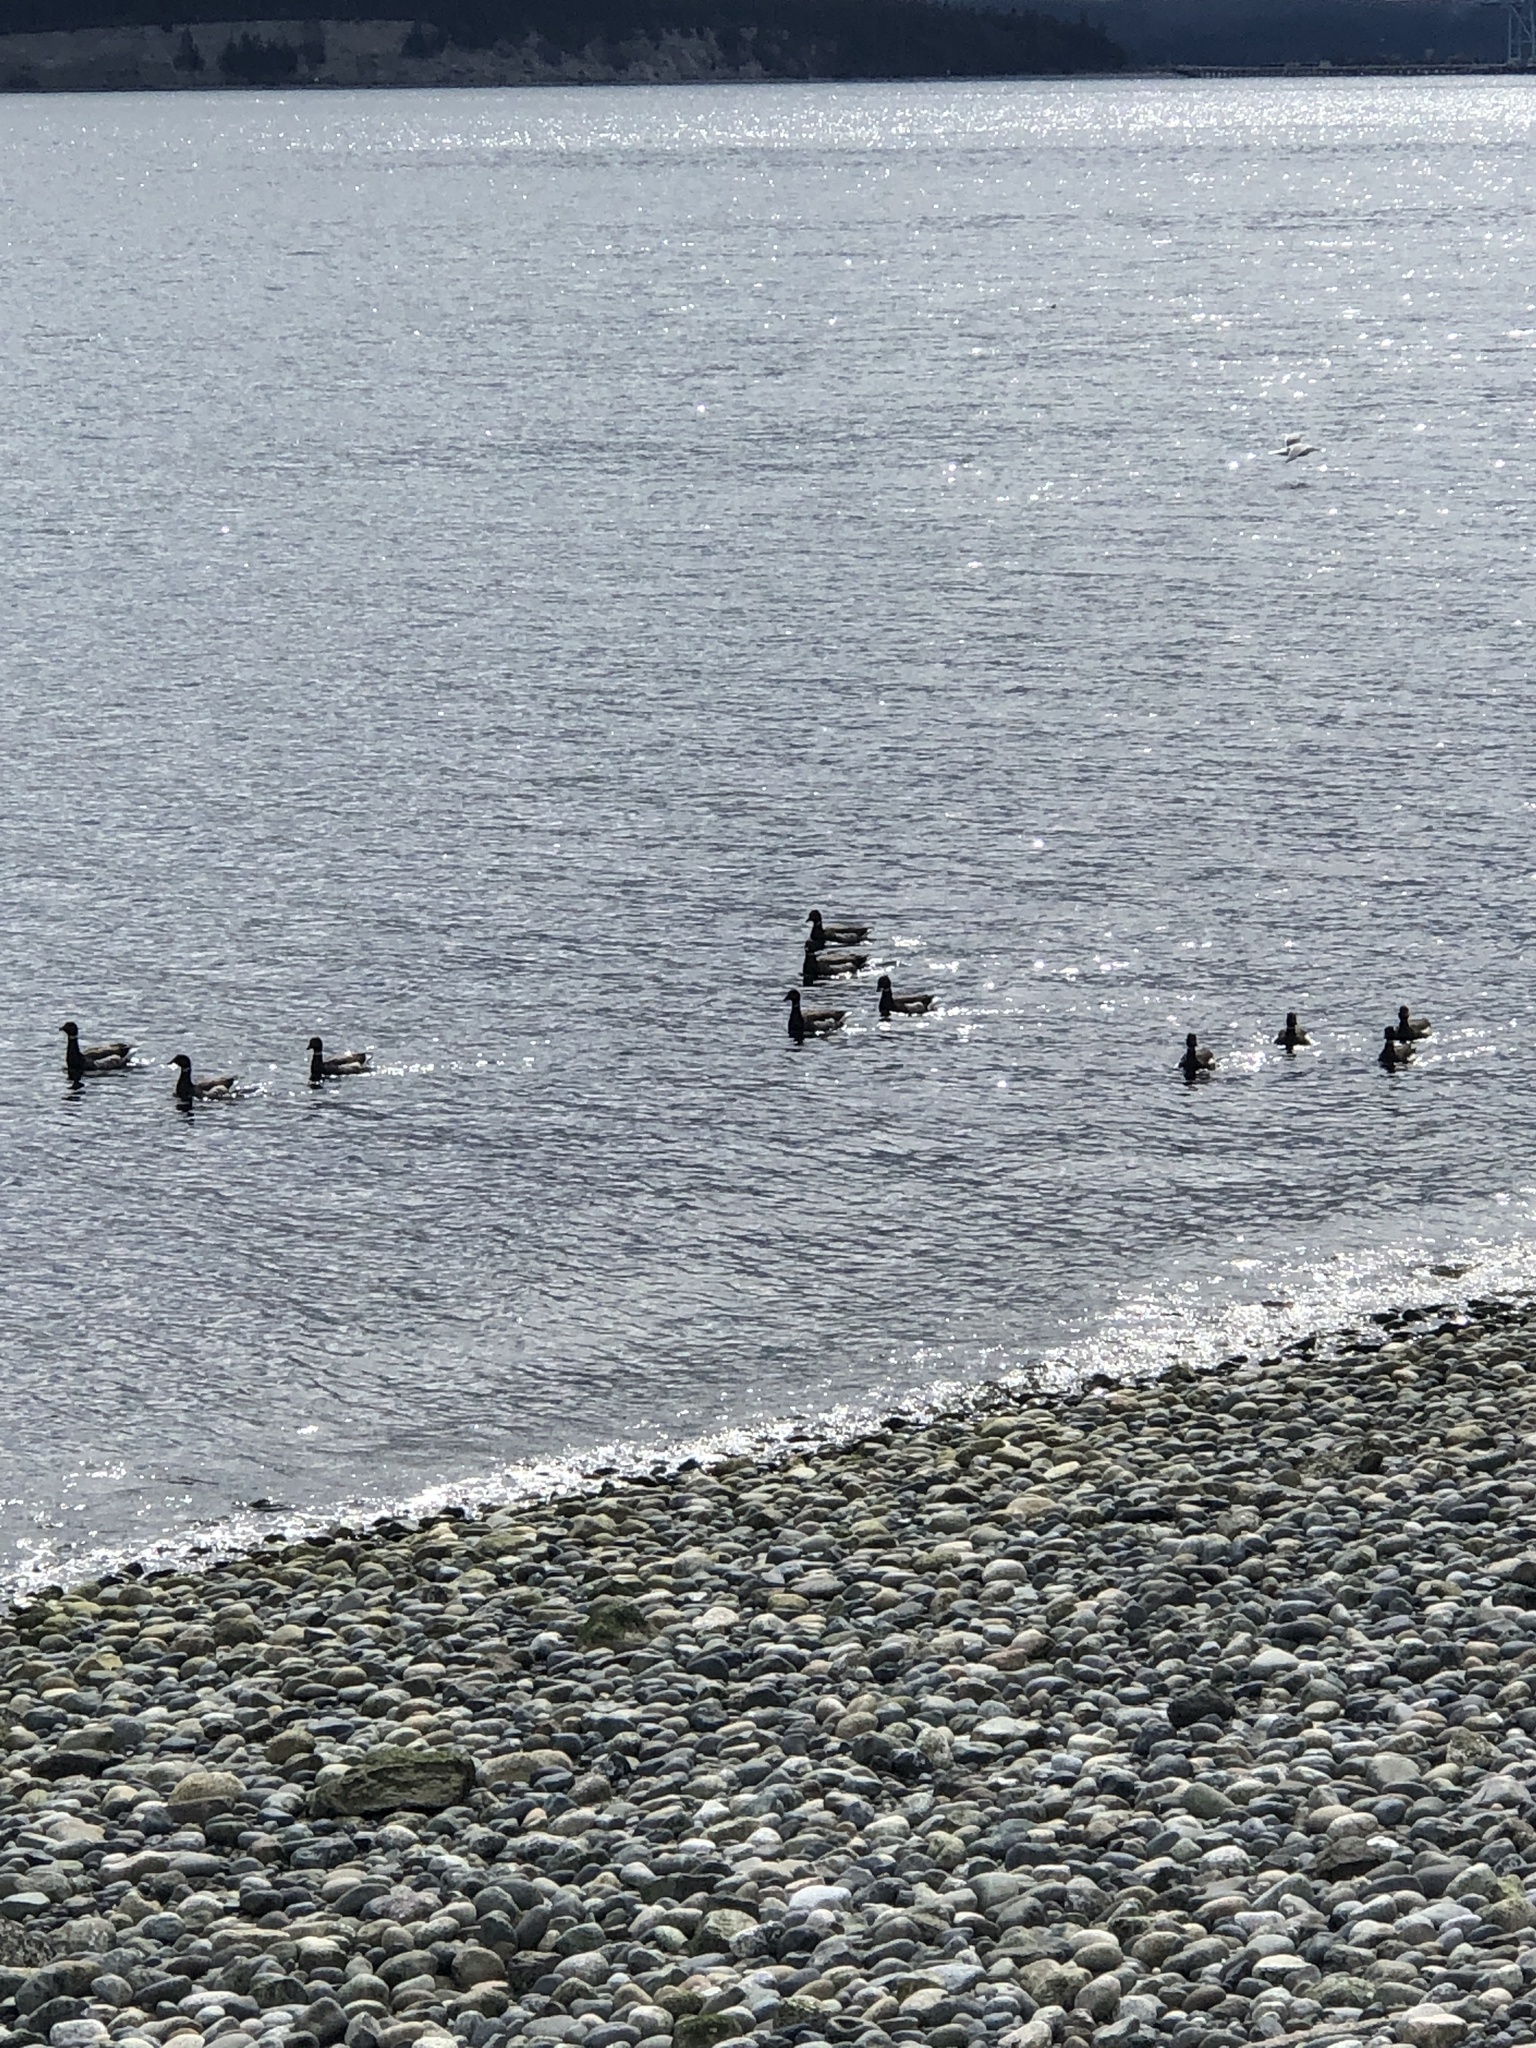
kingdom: Animalia
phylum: Chordata
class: Aves
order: Anseriformes
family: Anatidae
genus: Branta
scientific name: Branta bernicla
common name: Brant goose
